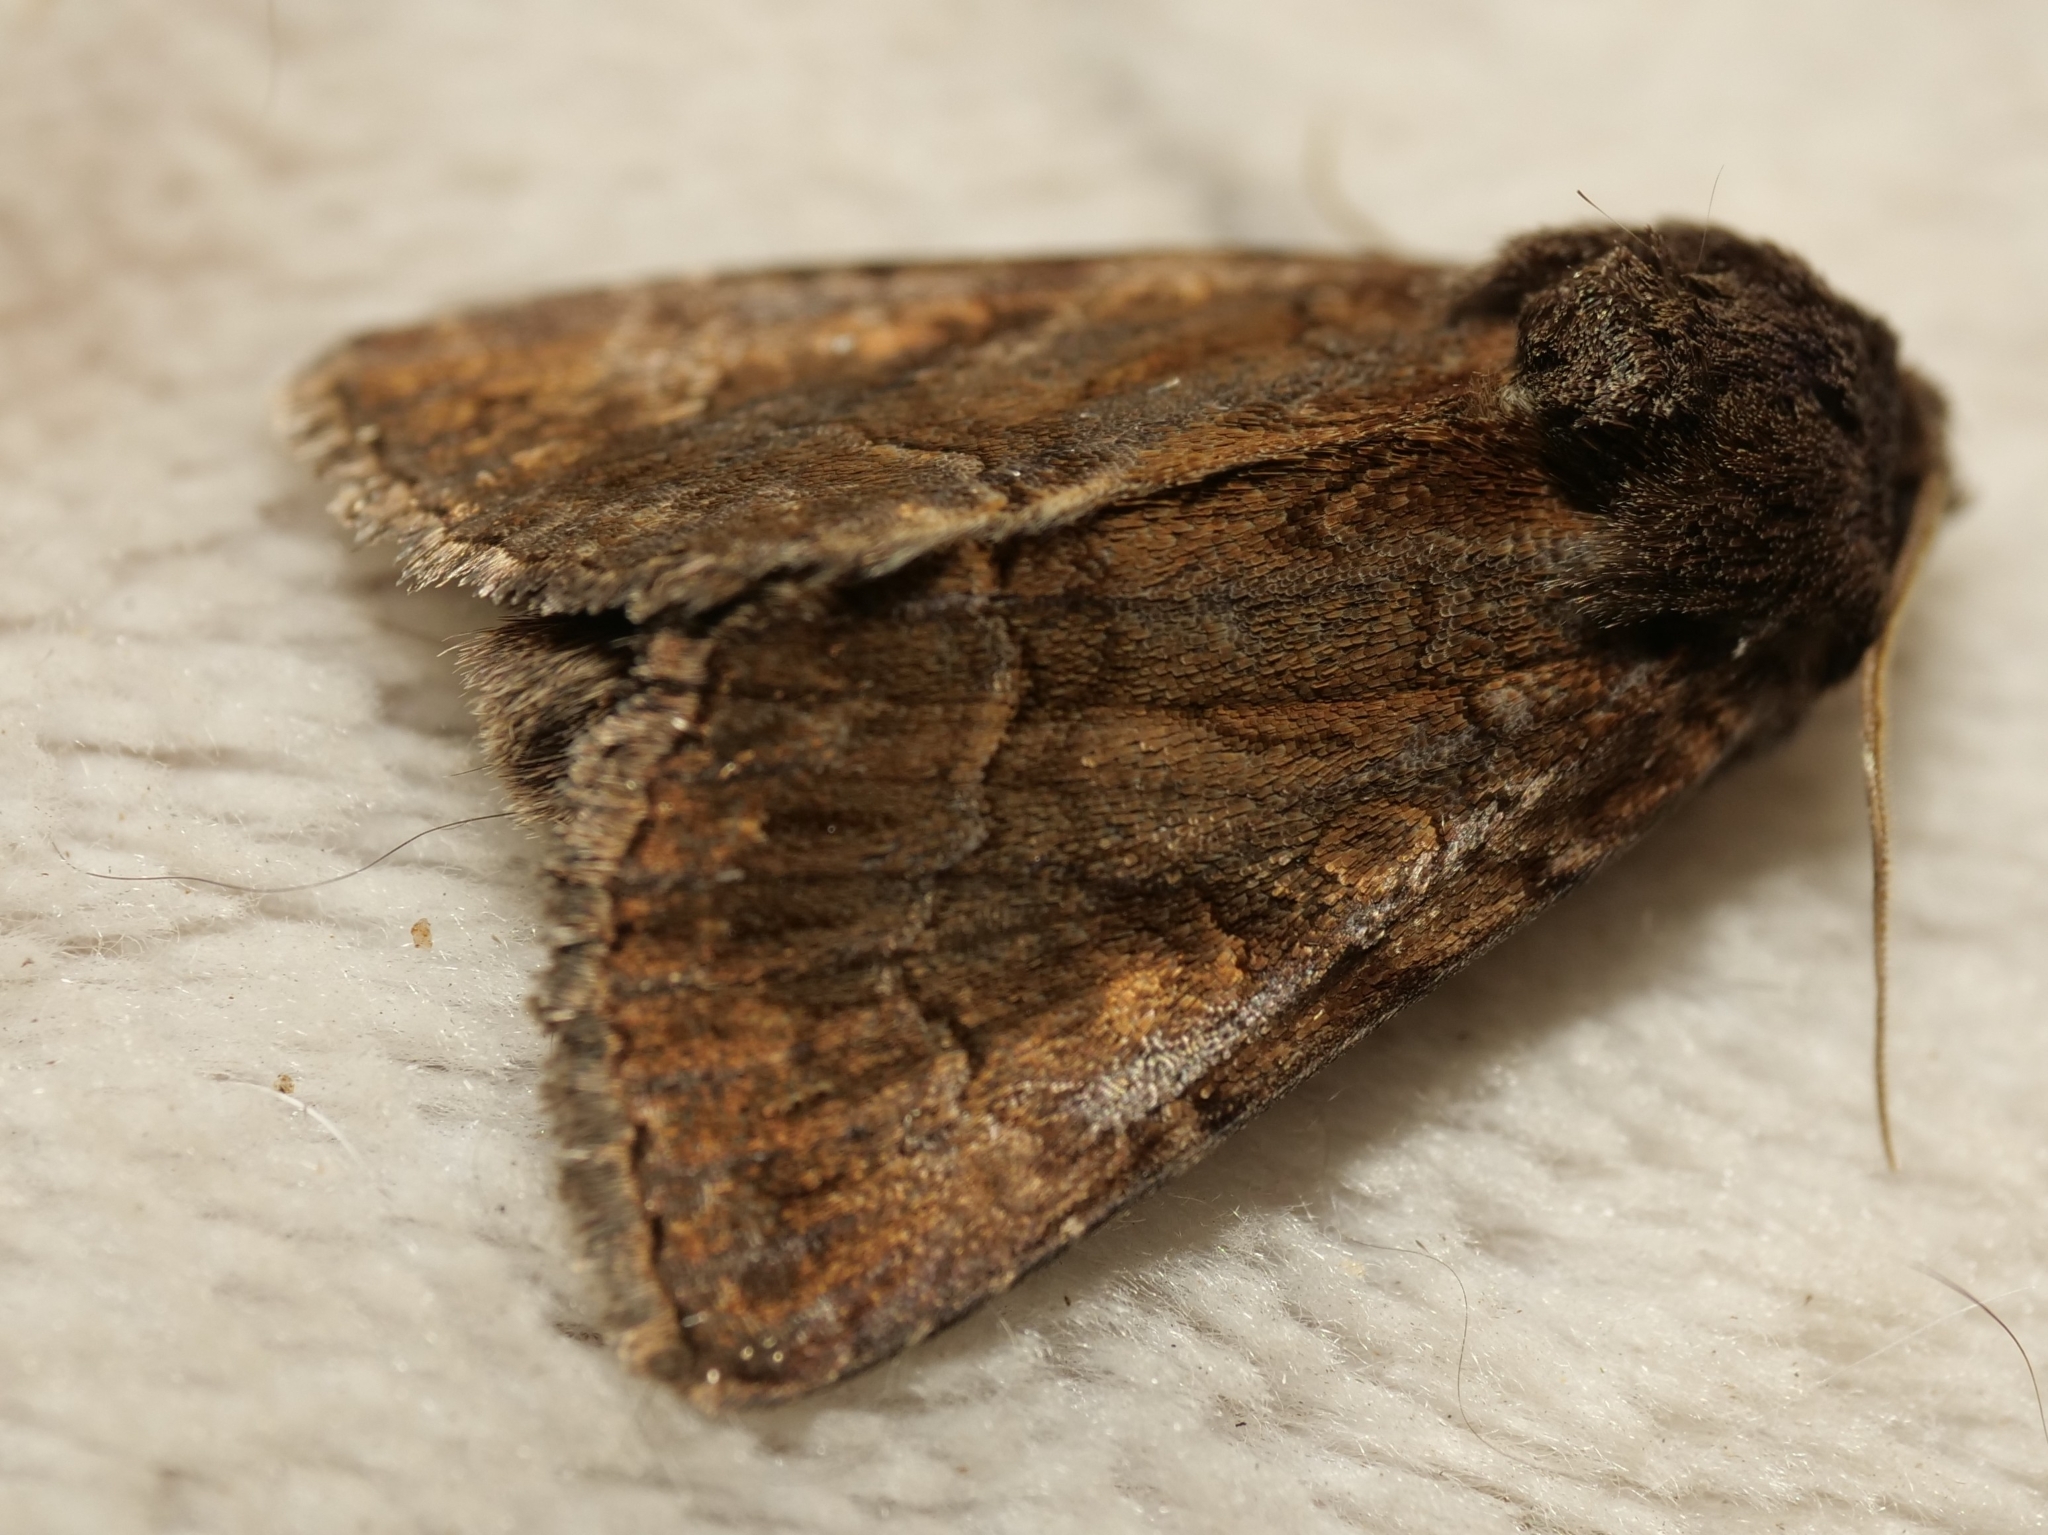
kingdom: Animalia
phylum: Arthropoda
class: Insecta
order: Lepidoptera
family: Noctuidae
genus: Thalpophila
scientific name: Thalpophila matura
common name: Straw underwing
